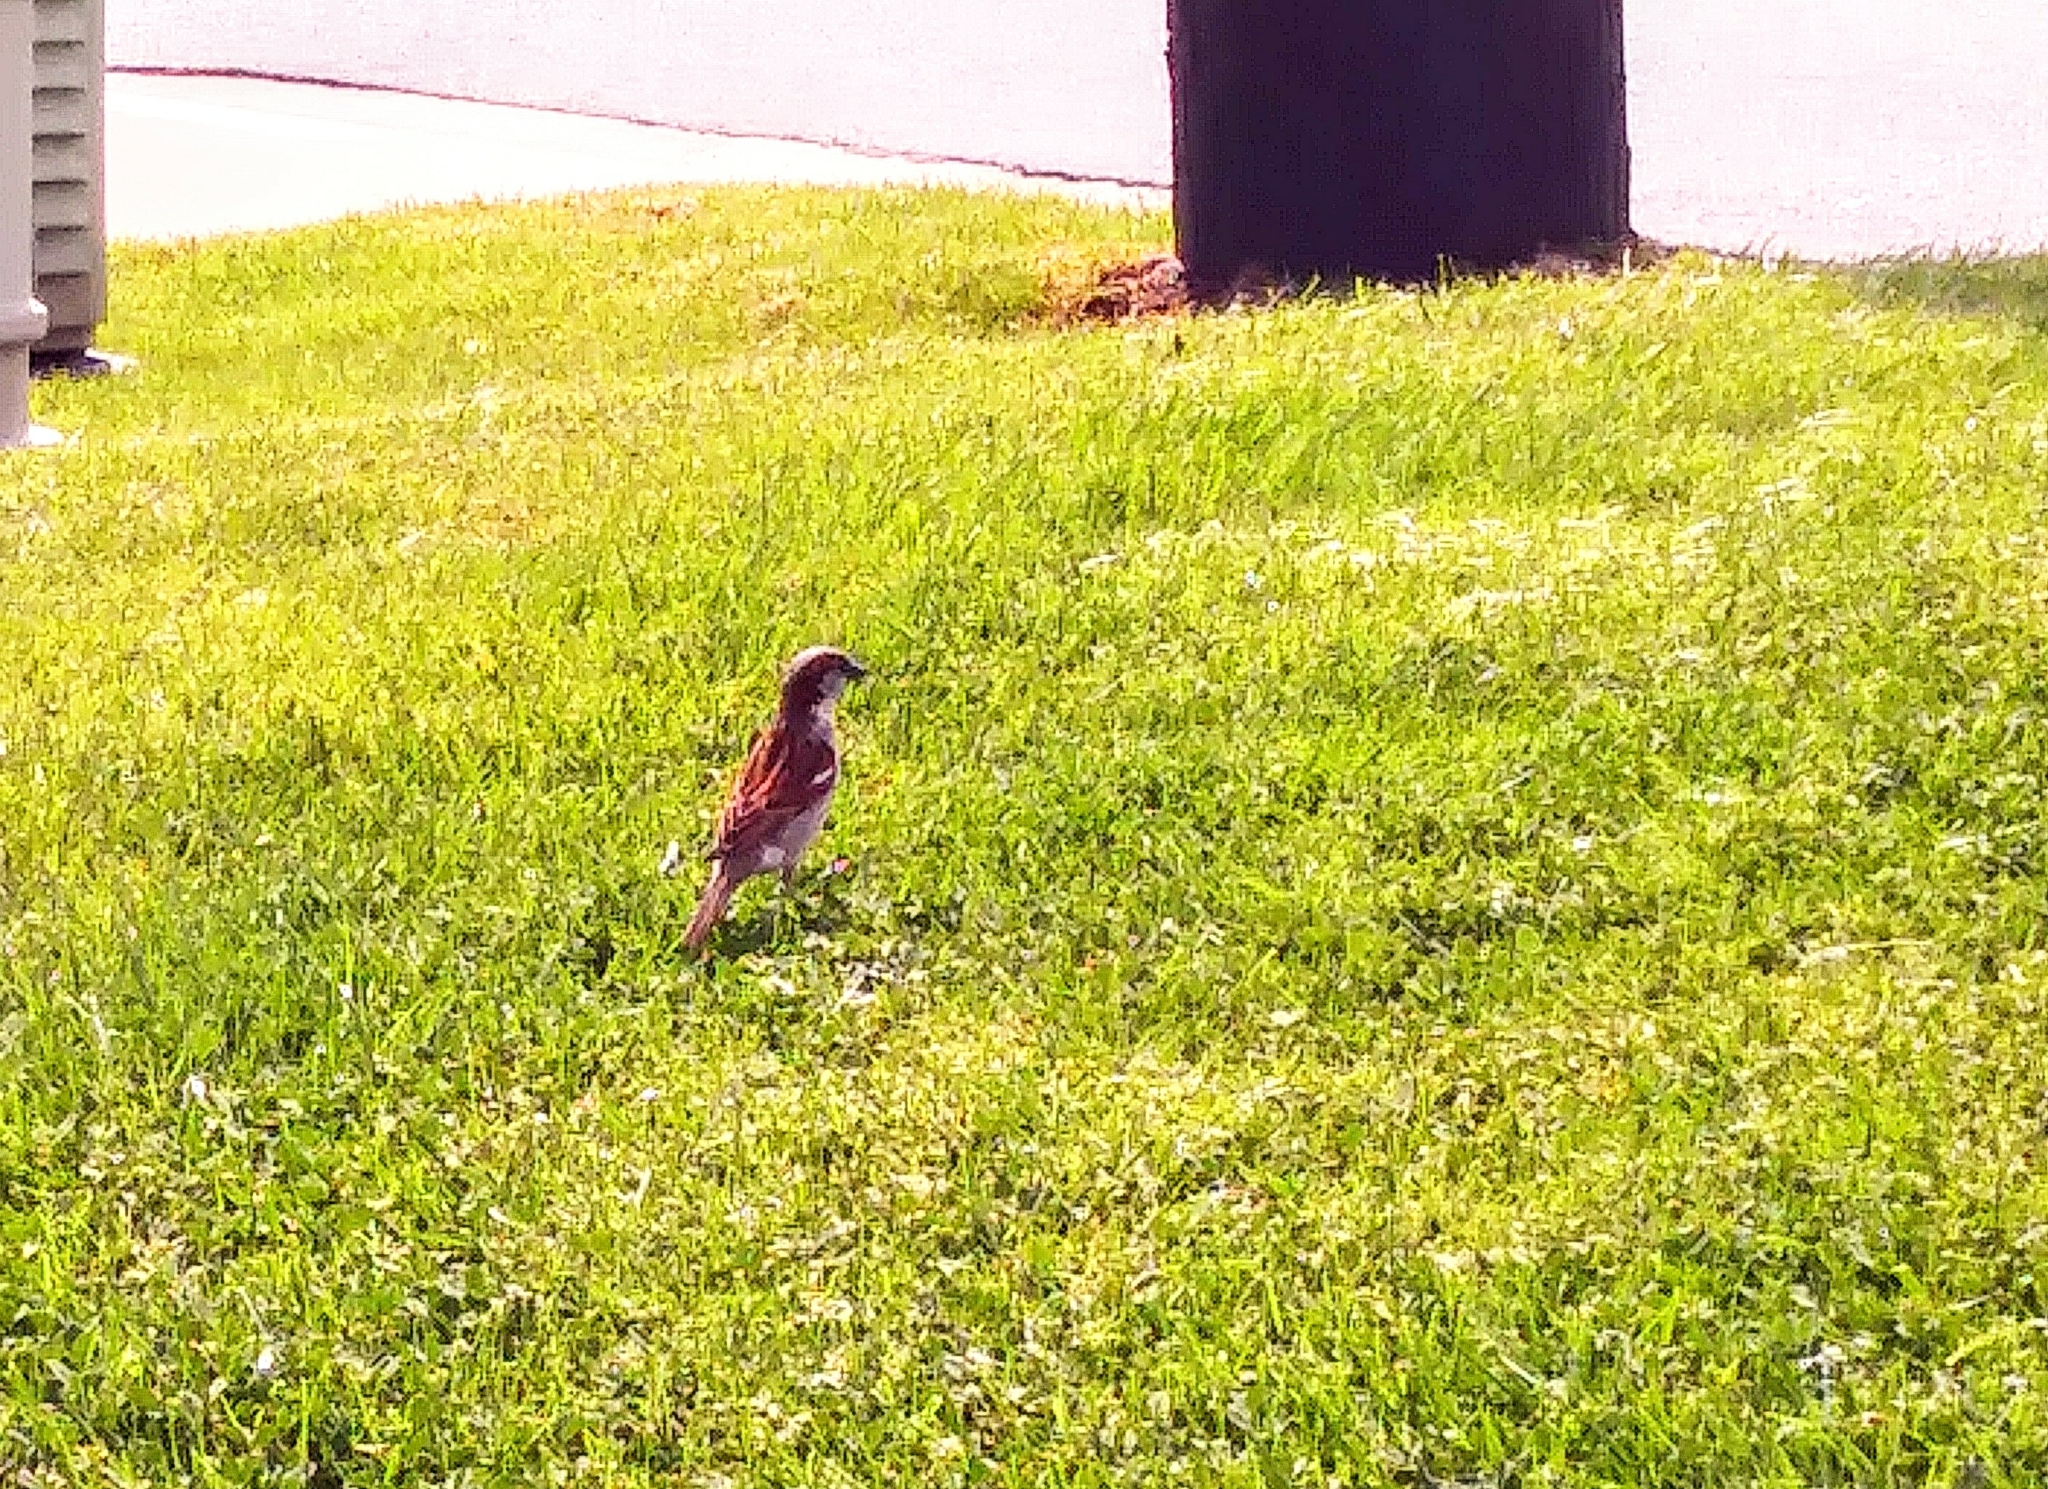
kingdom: Animalia
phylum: Chordata
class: Aves
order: Passeriformes
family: Passeridae
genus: Passer
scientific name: Passer domesticus
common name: House sparrow
